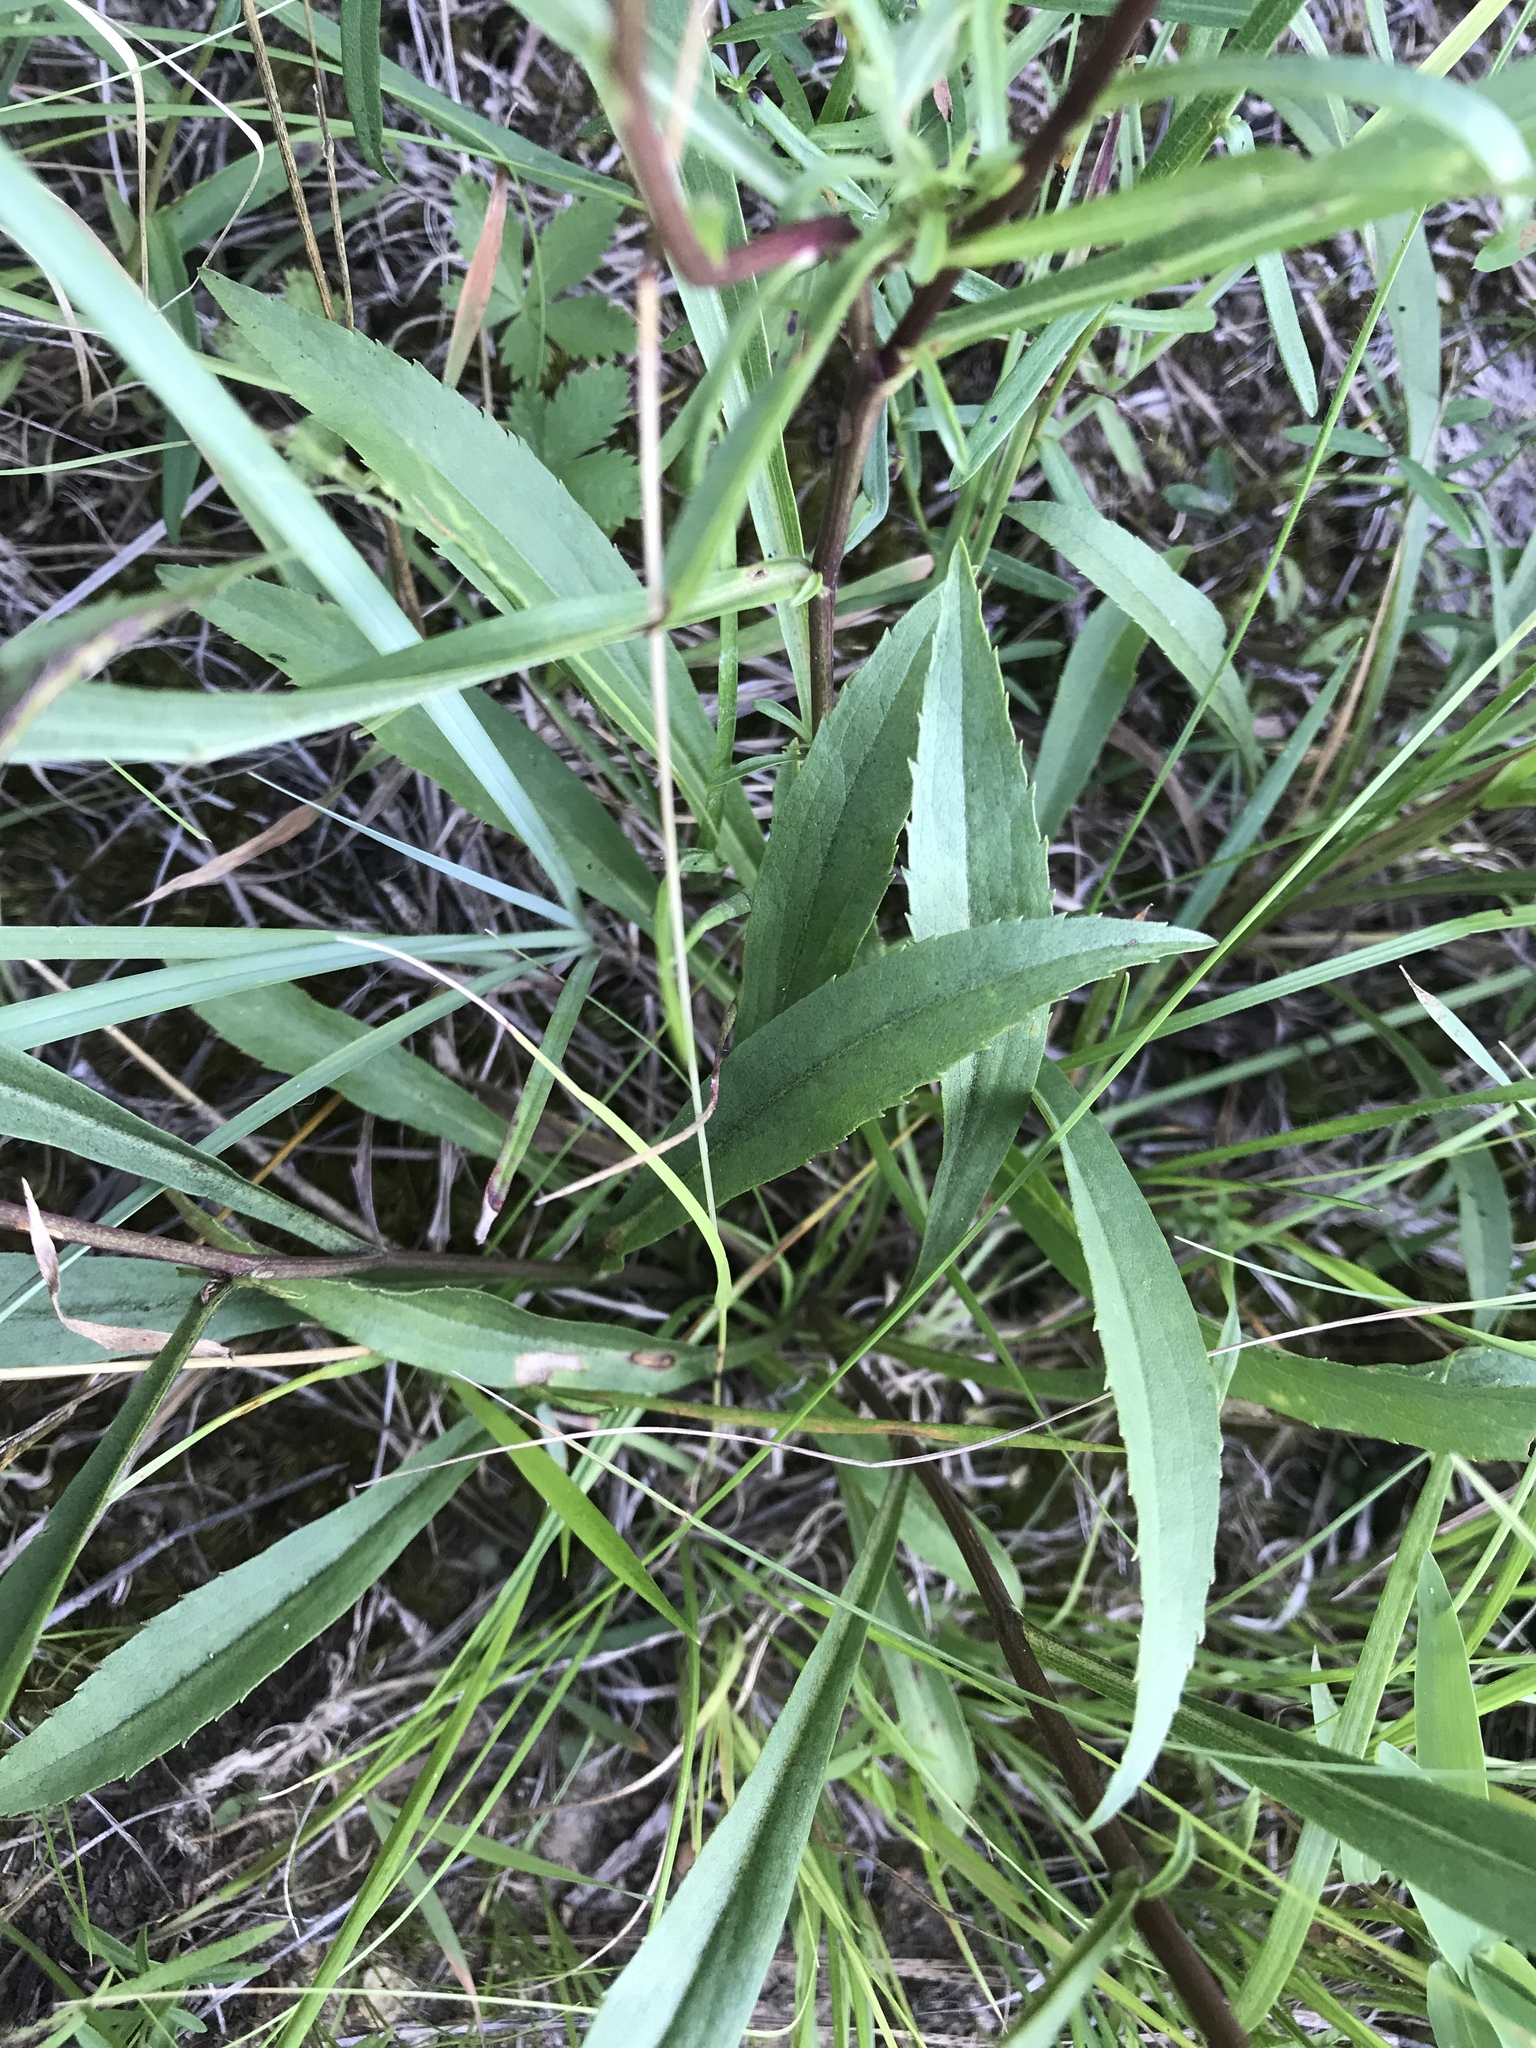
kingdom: Plantae
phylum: Tracheophyta
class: Magnoliopsida
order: Asterales
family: Asteraceae
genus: Solidago
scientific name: Solidago pinetorum
